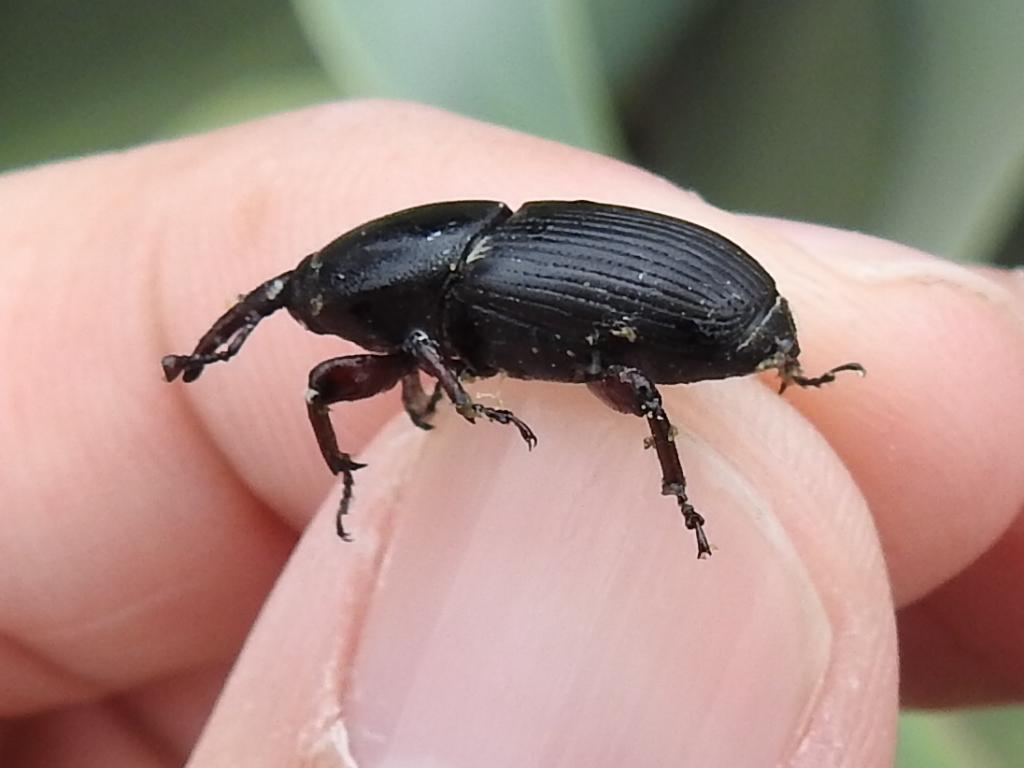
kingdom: Animalia
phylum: Arthropoda
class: Insecta
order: Coleoptera
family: Dryophthoridae
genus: Scyphophorus
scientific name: Scyphophorus acupunctatus
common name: Weevil
